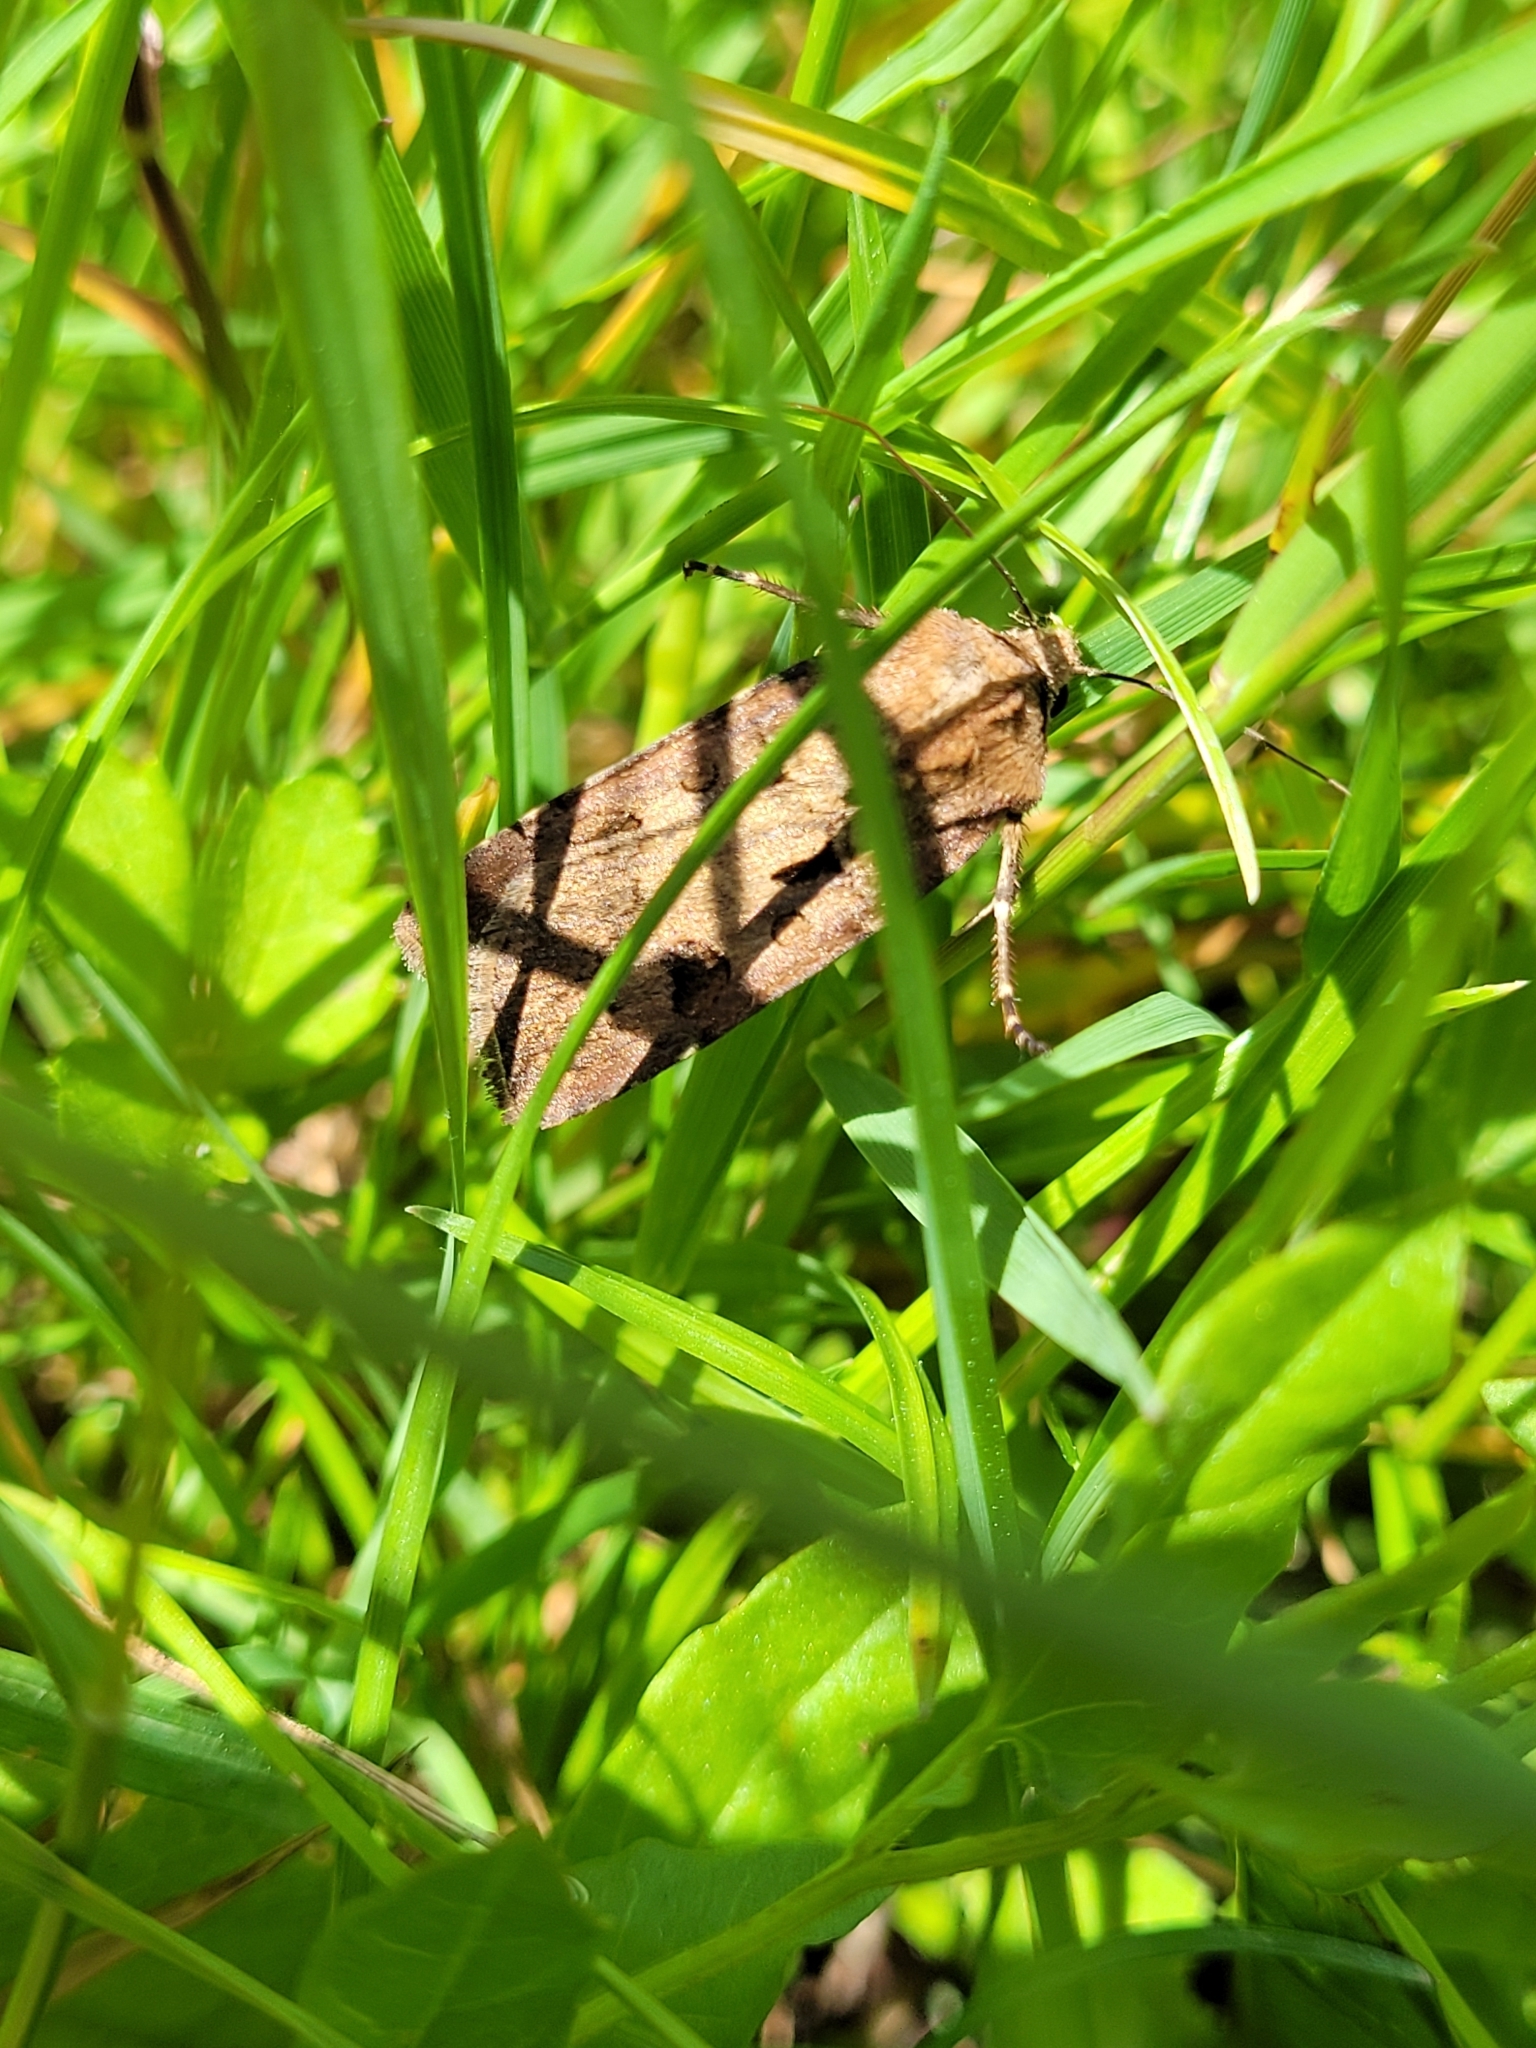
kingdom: Animalia
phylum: Arthropoda
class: Insecta
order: Lepidoptera
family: Noctuidae
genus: Agrotis
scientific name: Agrotis exclamationis
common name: Heart and dart
